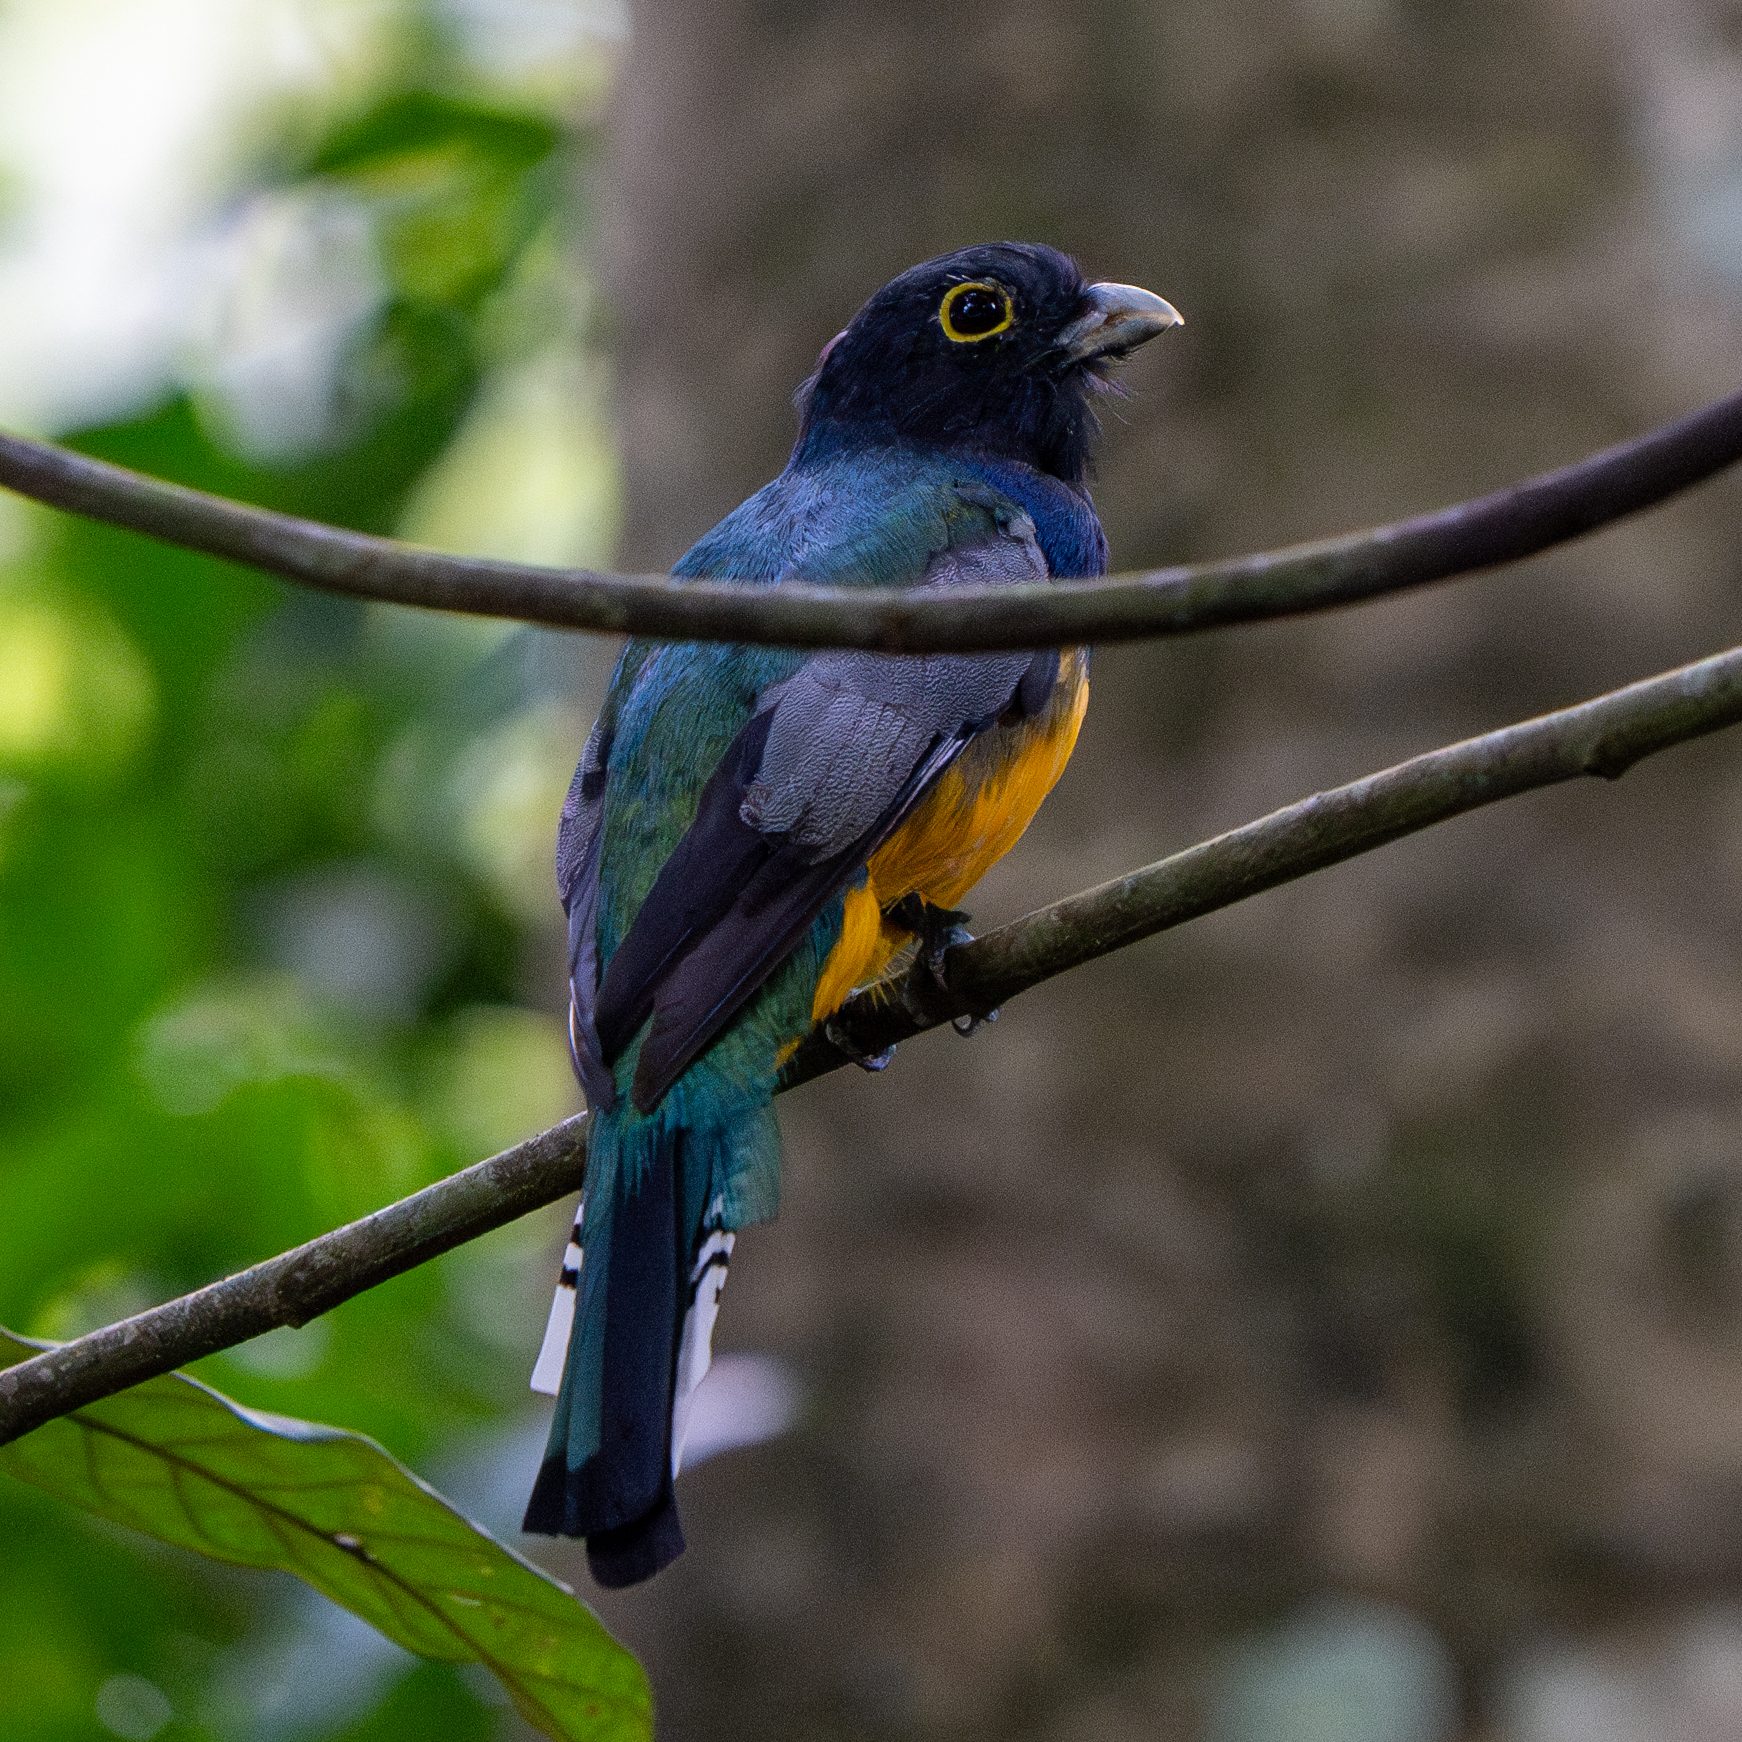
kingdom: Animalia
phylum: Chordata
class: Aves
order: Trogoniformes
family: Trogonidae
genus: Trogon
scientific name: Trogon caligatus
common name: Gartered trogon
